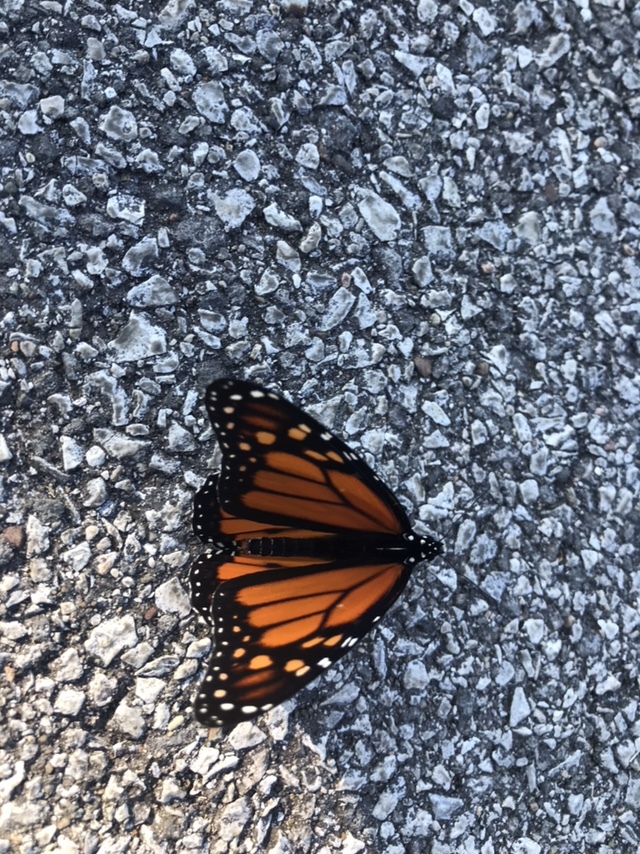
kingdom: Animalia
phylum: Arthropoda
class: Insecta
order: Lepidoptera
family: Nymphalidae
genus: Danaus
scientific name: Danaus plexippus
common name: Monarch
